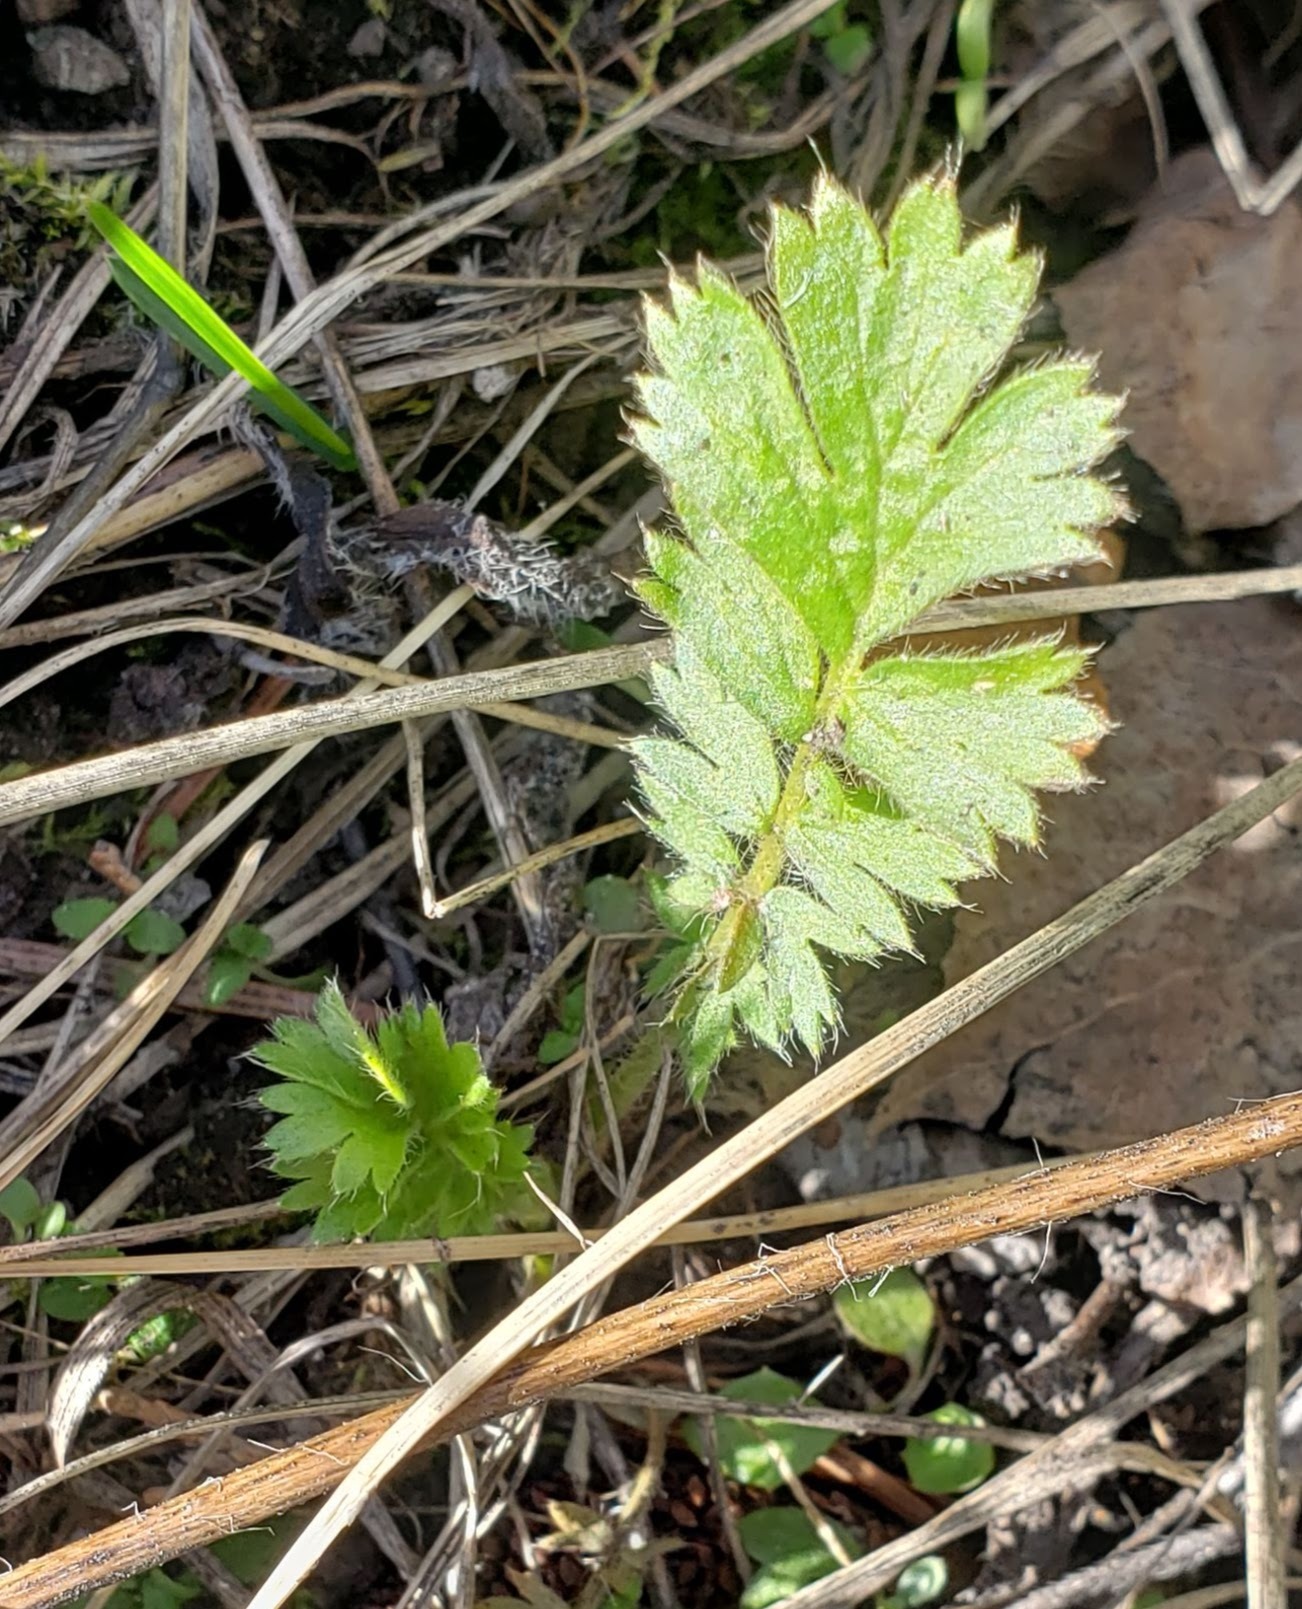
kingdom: Plantae
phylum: Tracheophyta
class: Magnoliopsida
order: Rosales
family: Rosaceae
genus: Geum
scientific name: Geum triflorum
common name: Old man's whiskers
